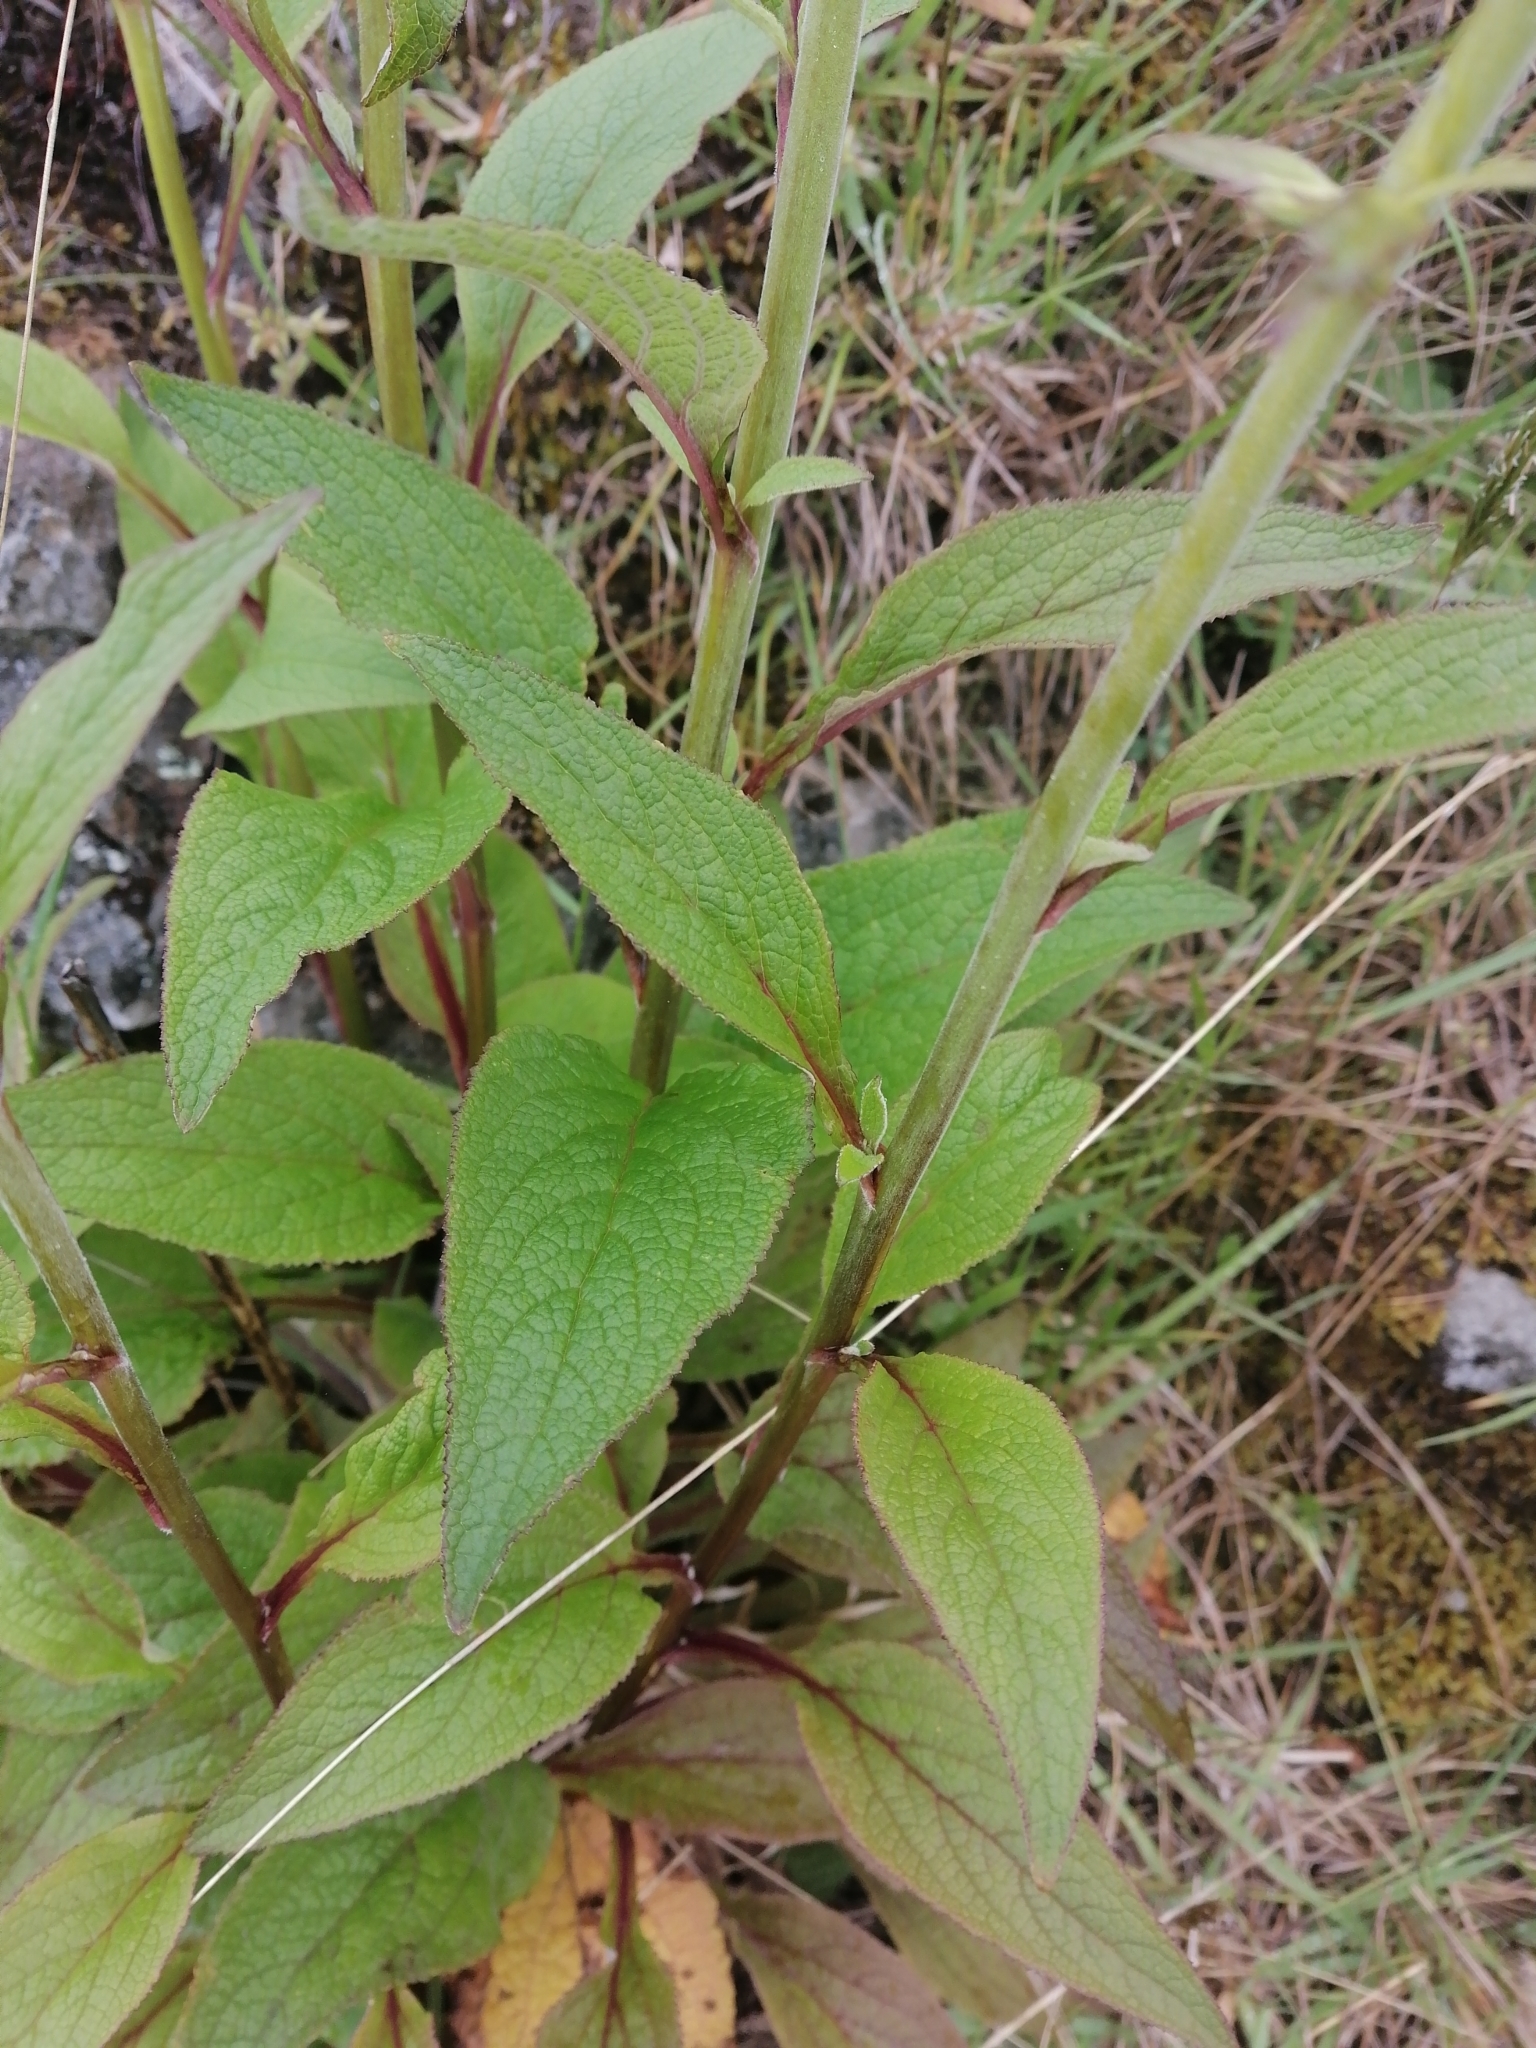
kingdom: Plantae
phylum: Tracheophyta
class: Magnoliopsida
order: Lamiales
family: Plantaginaceae
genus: Digitalis
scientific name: Digitalis purpurea
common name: Foxglove
